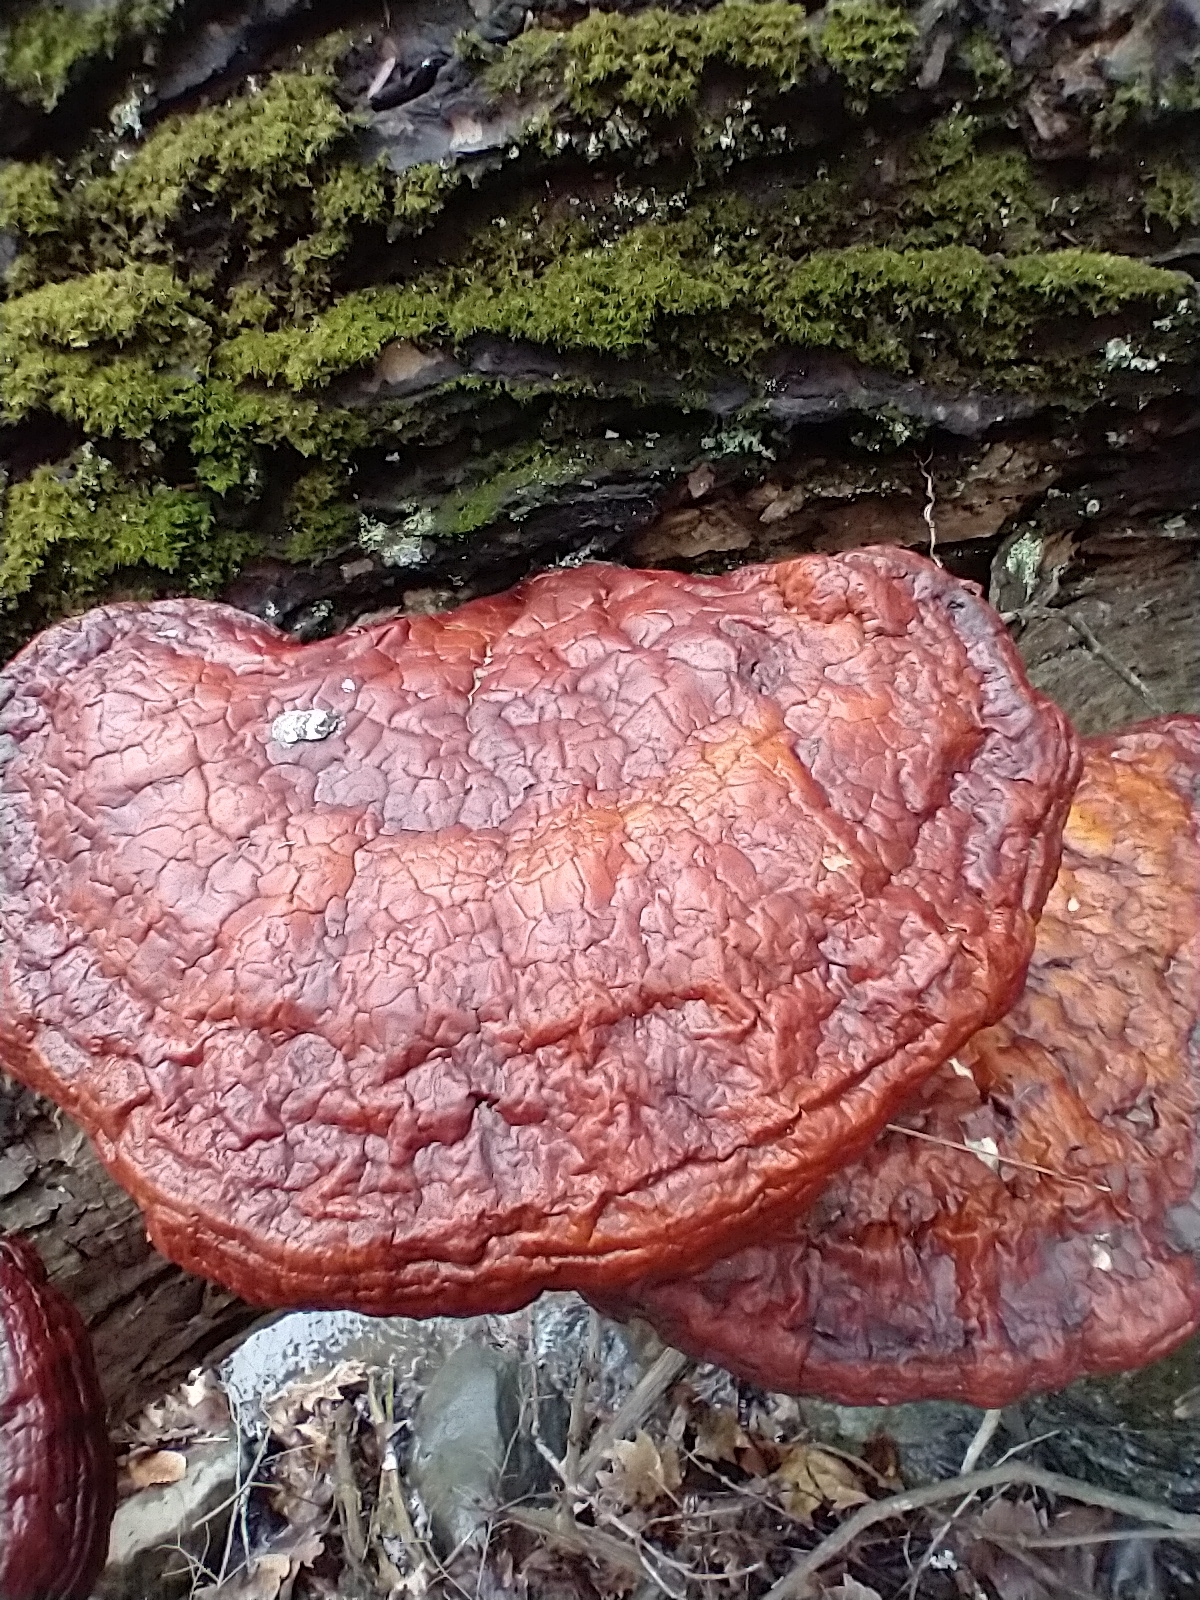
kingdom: Fungi
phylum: Basidiomycota
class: Agaricomycetes
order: Polyporales
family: Polyporaceae
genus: Ganoderma
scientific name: Ganoderma tsugae
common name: Hemlock varnish shelf
